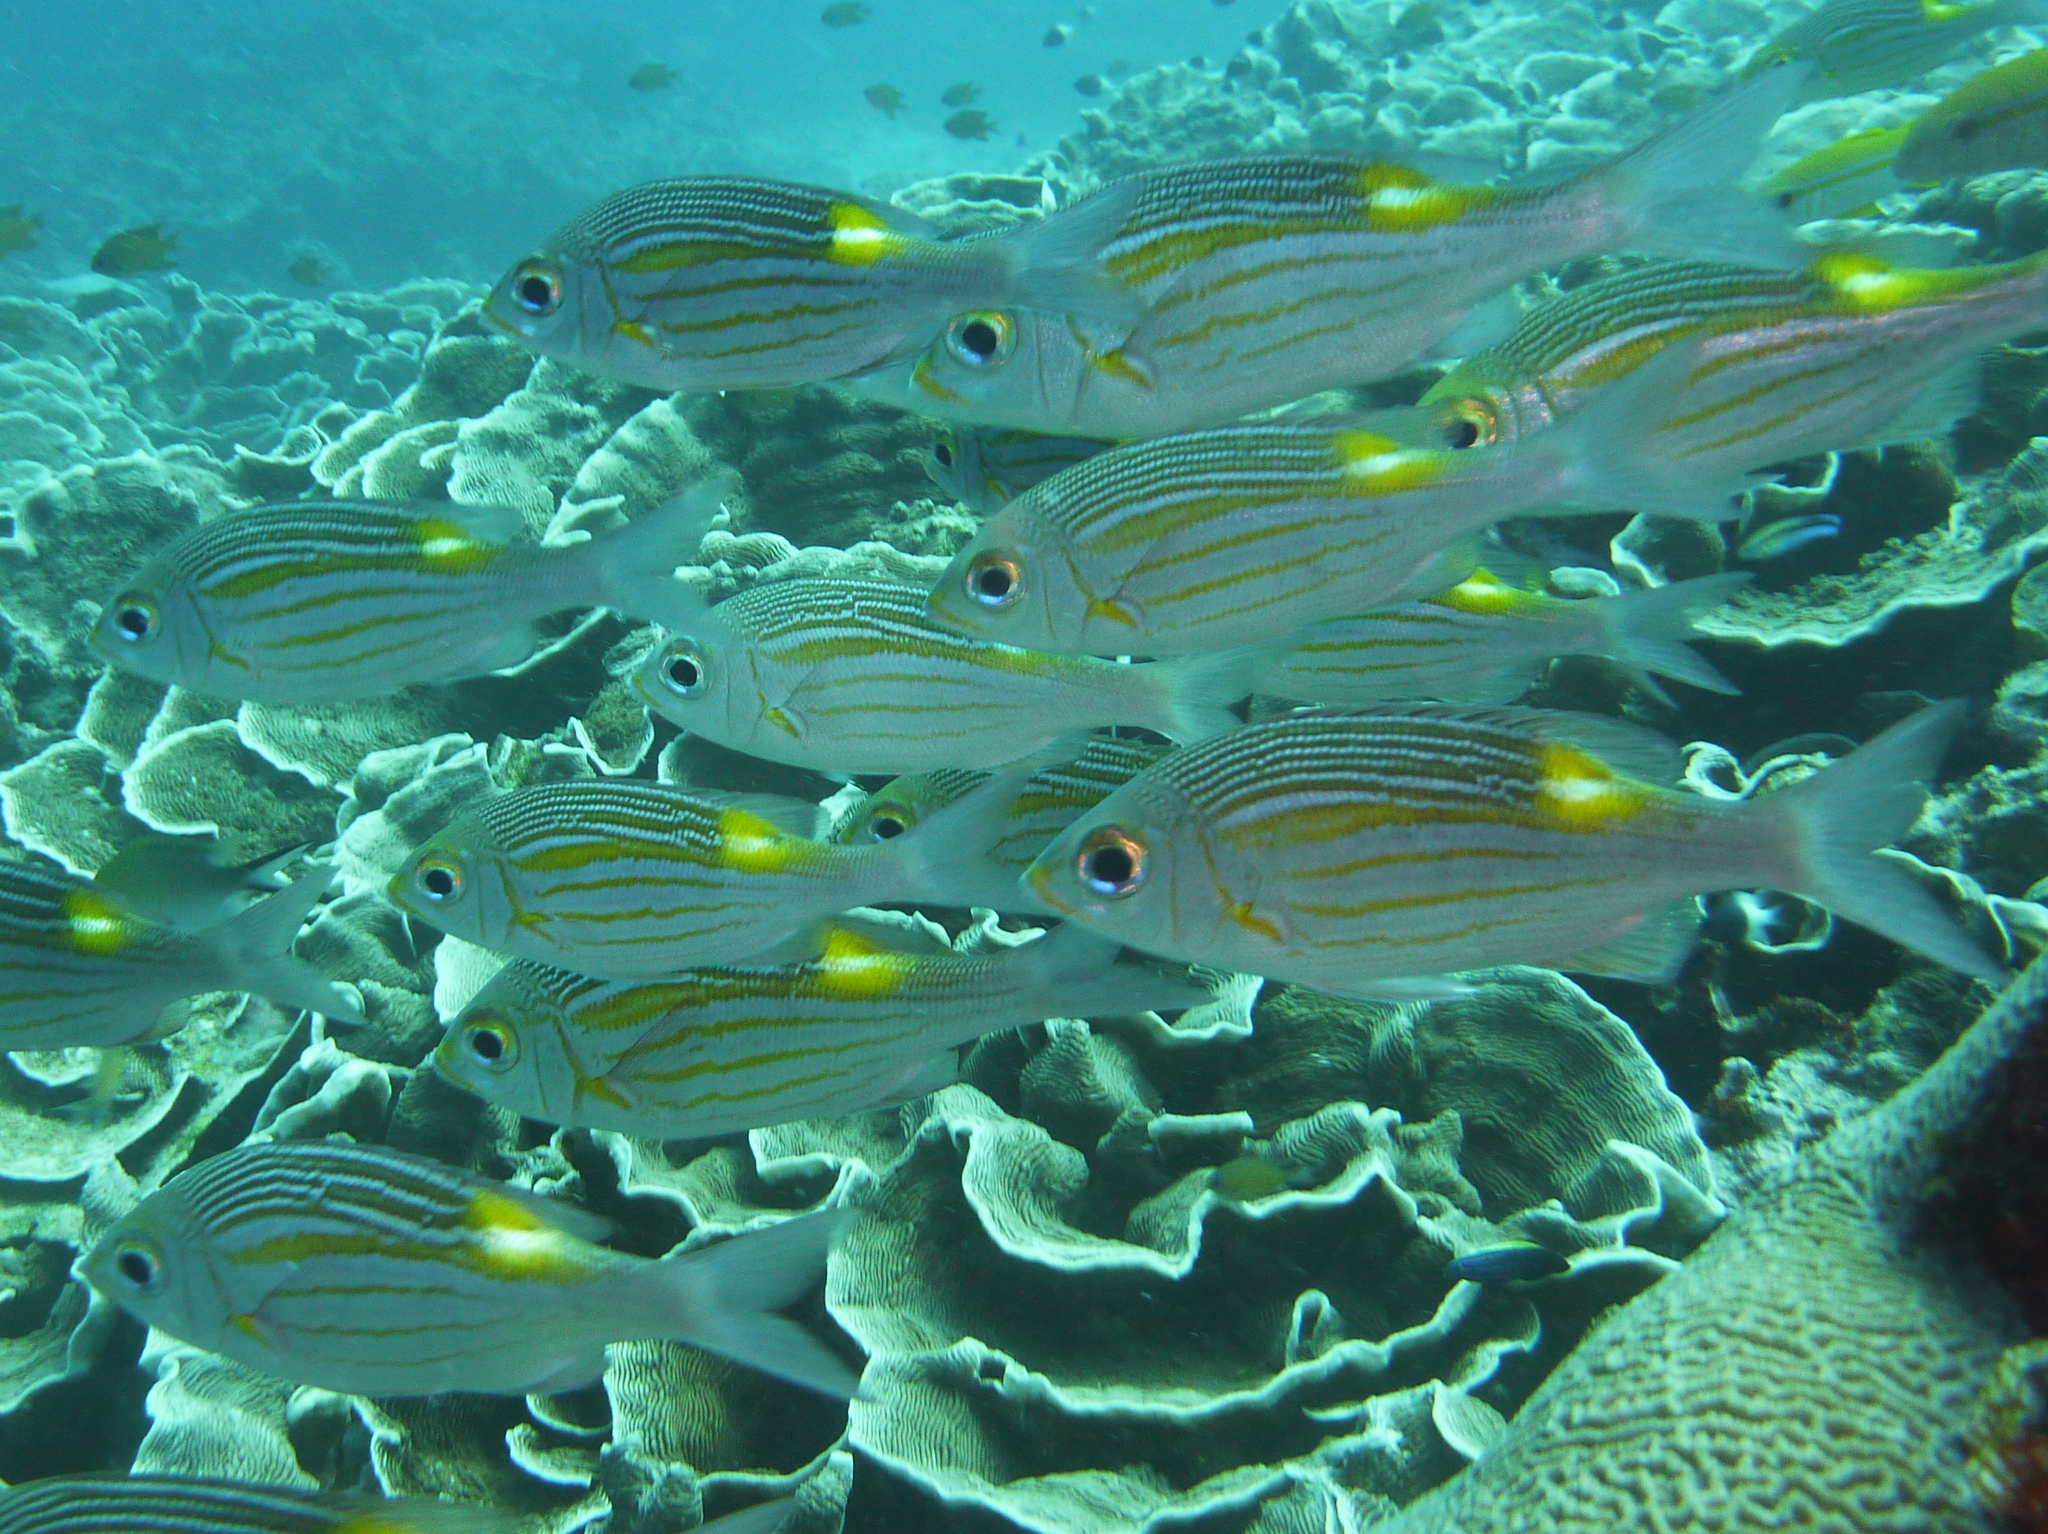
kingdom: Animalia
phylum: Chordata
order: Perciformes
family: Lethrinidae
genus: Gnathodentex
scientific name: Gnathodentex aureolineatus
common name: Gold-lined sea bream
